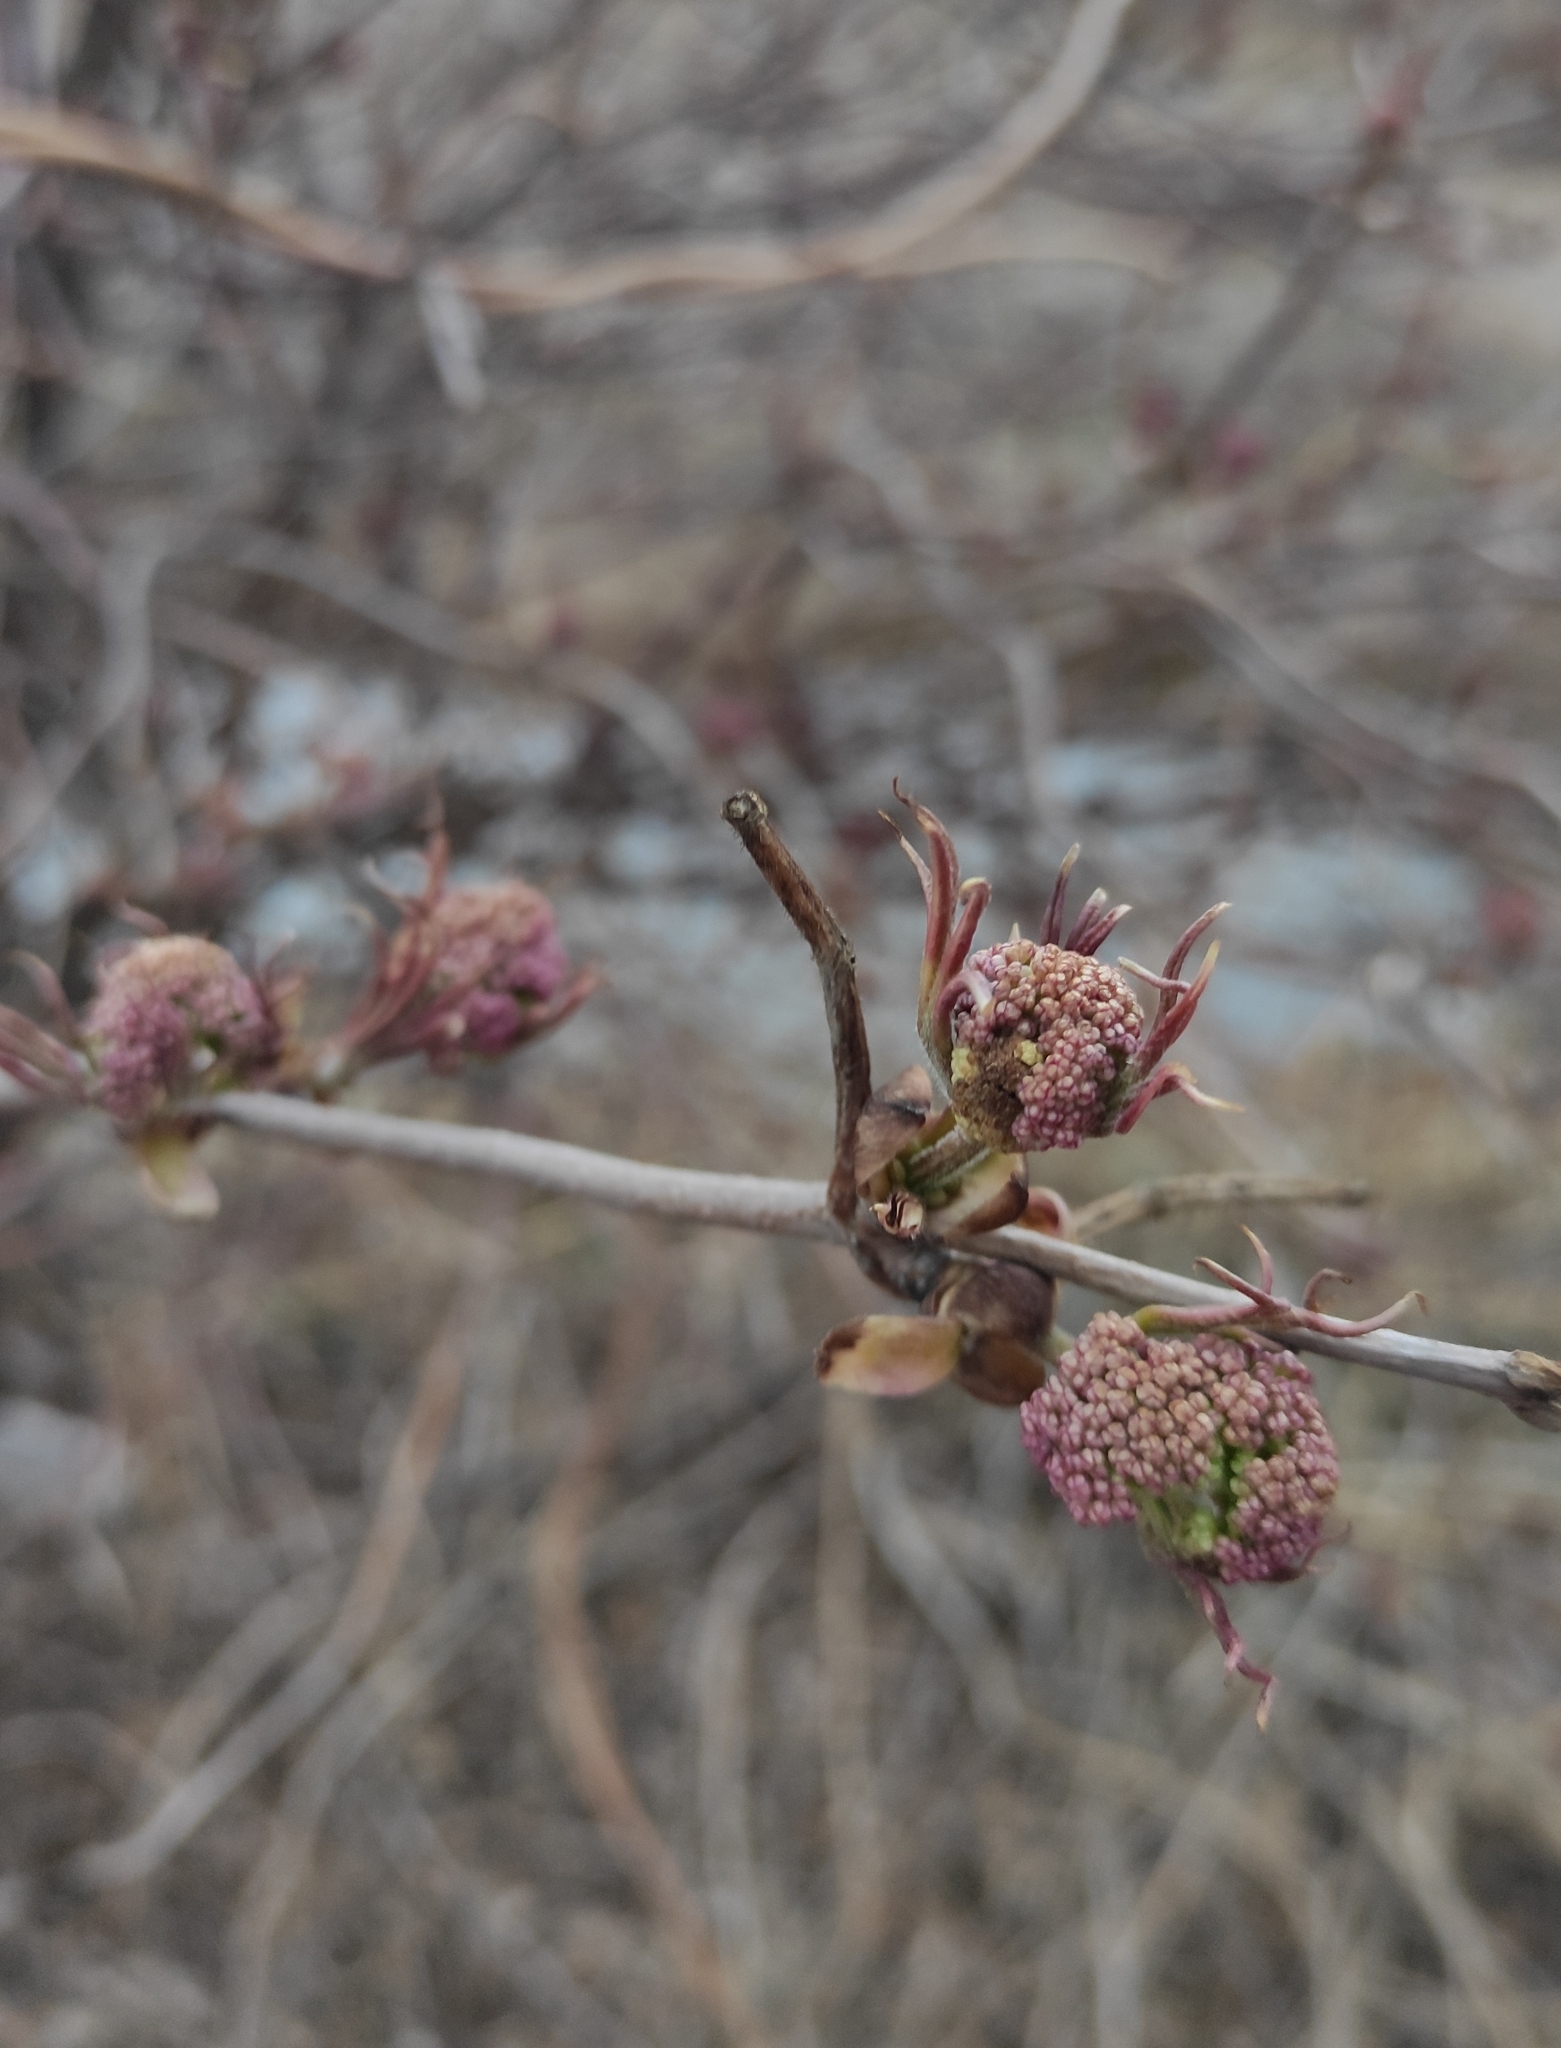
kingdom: Plantae
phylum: Tracheophyta
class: Magnoliopsida
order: Dipsacales
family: Viburnaceae
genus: Sambucus
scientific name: Sambucus sibirica
